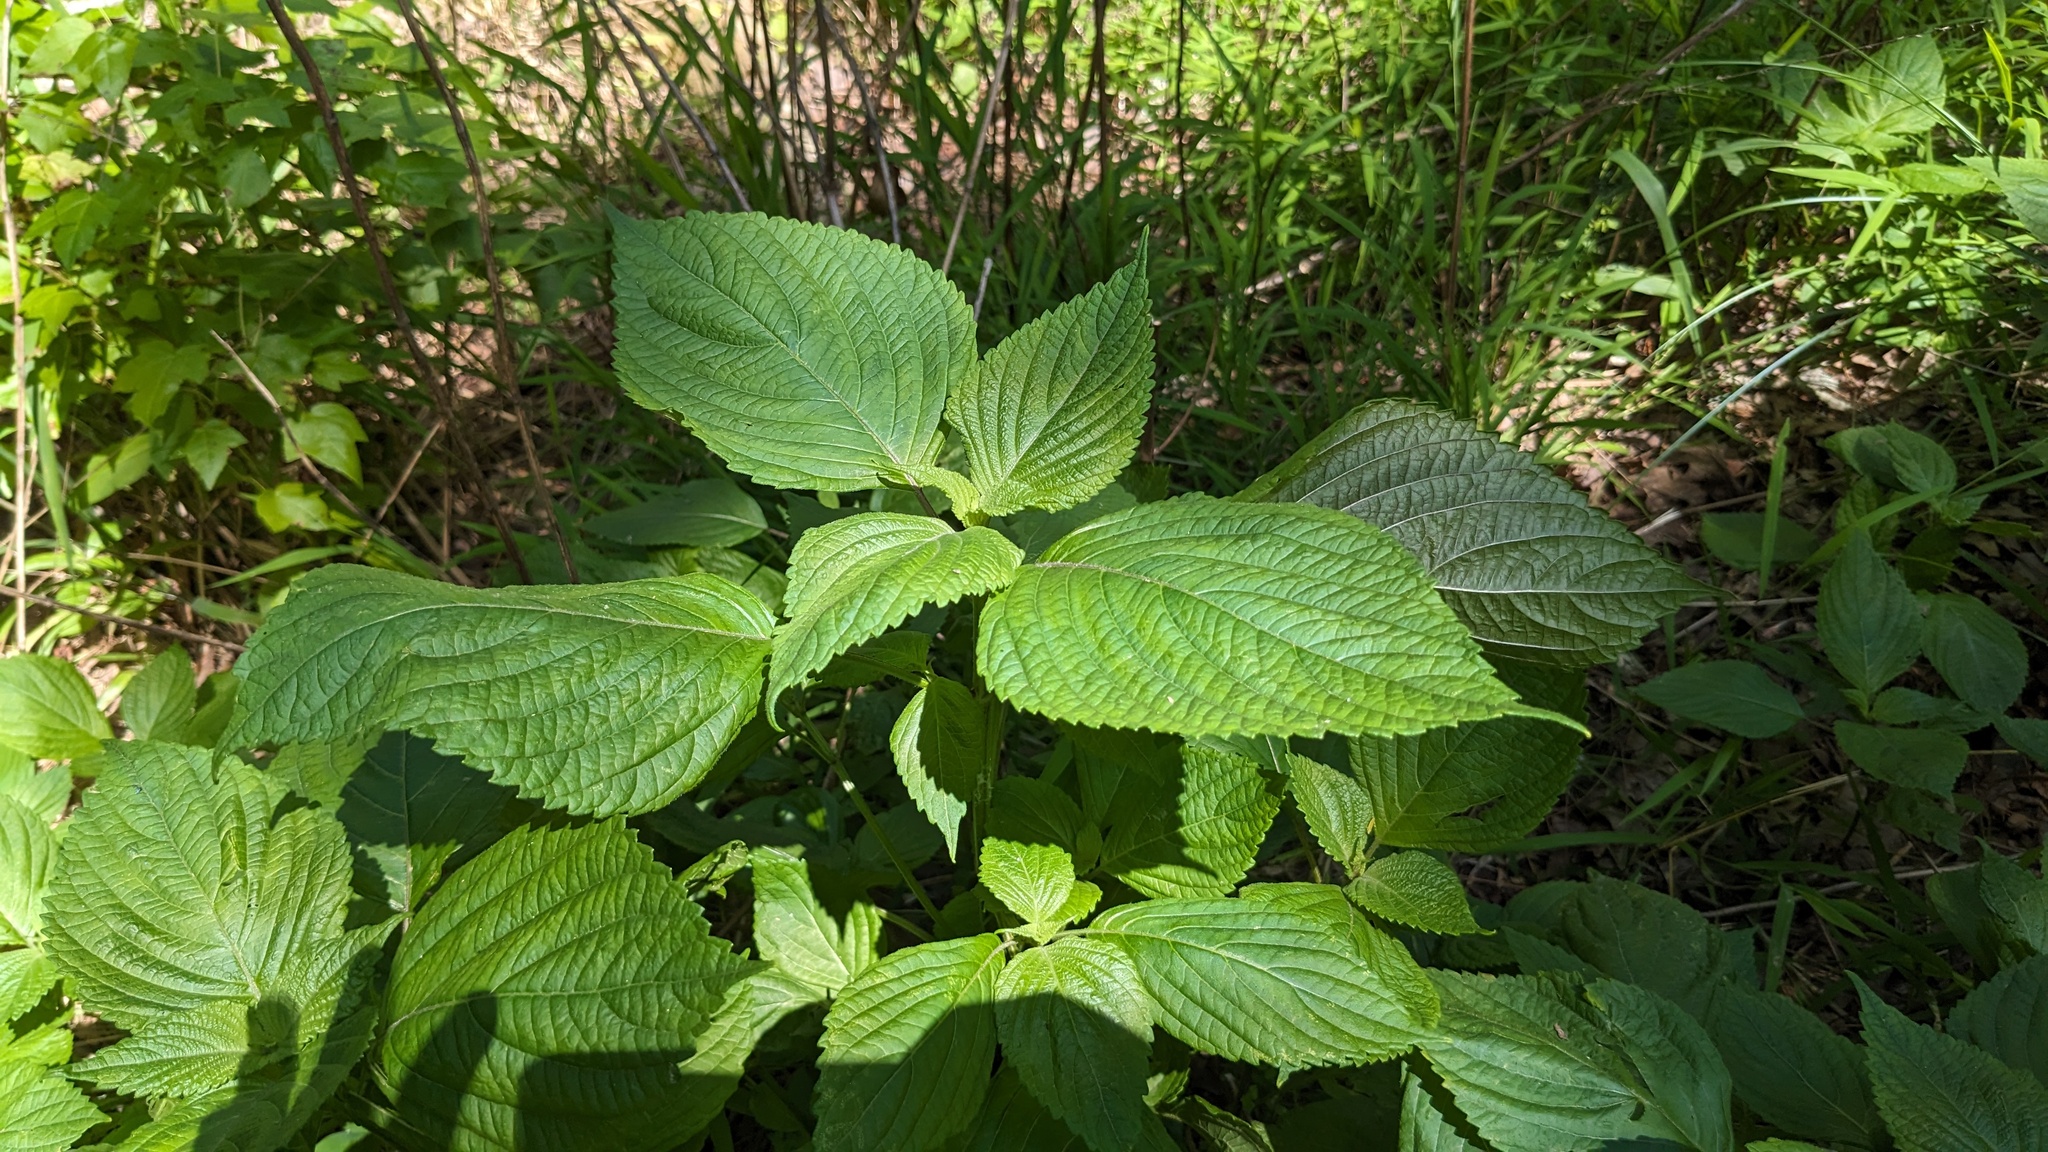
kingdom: Plantae
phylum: Tracheophyta
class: Magnoliopsida
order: Lamiales
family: Lamiaceae
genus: Perilla
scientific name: Perilla frutescens
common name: Perilla
